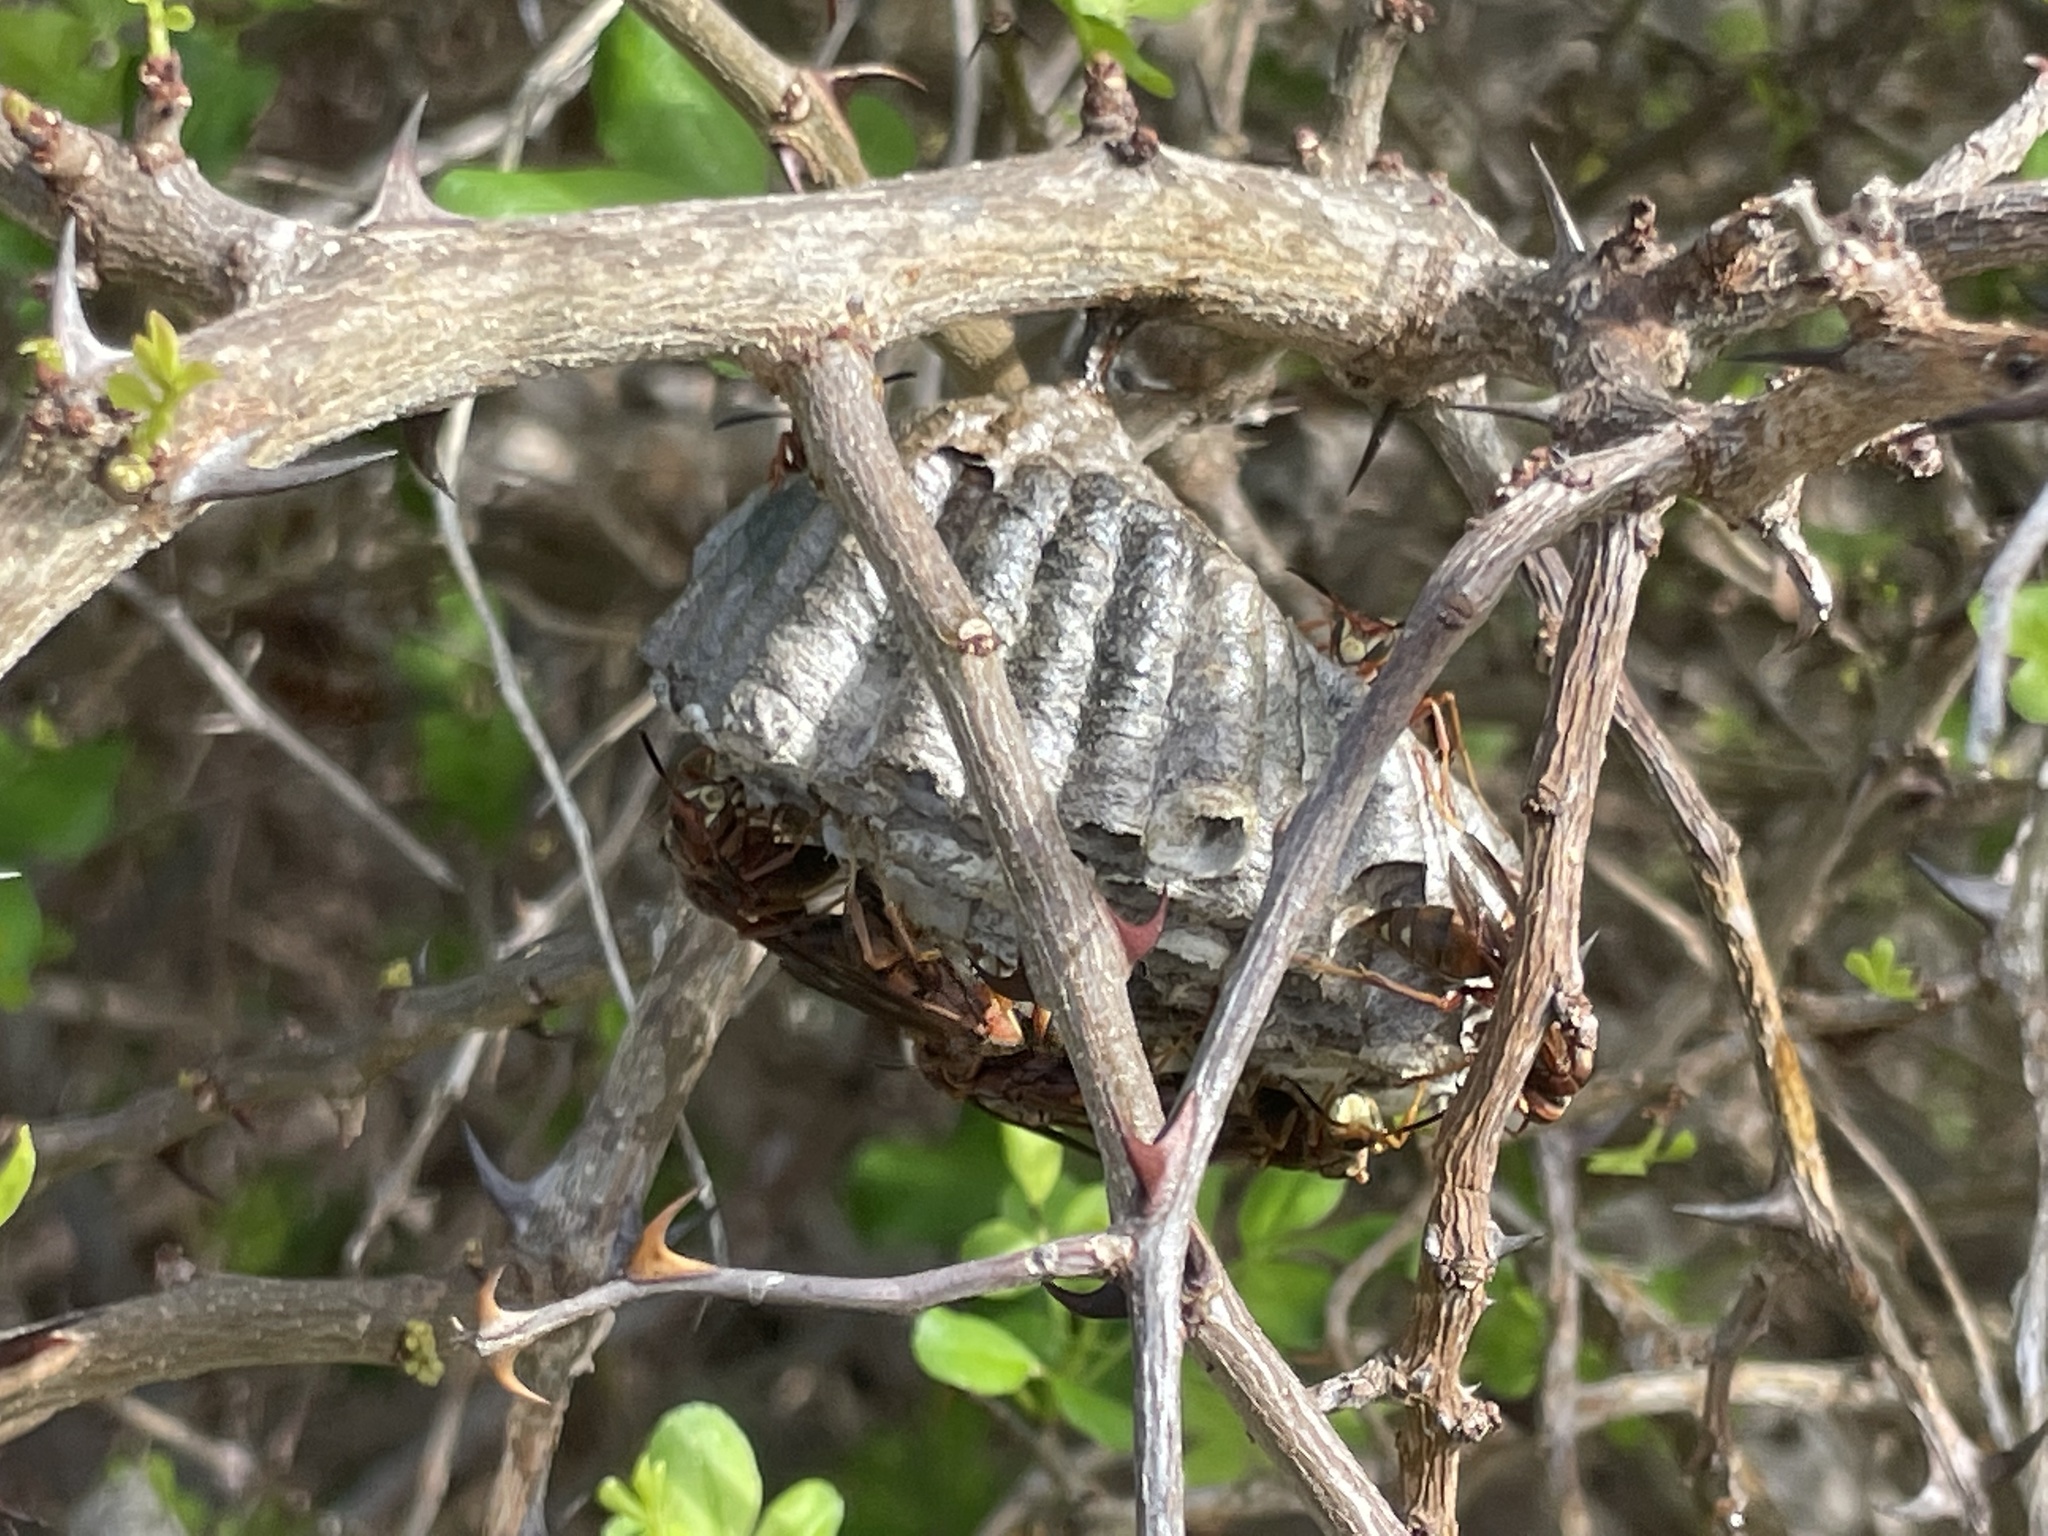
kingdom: Animalia
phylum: Arthropoda
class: Insecta
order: Hymenoptera
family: Eumenidae
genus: Polistes
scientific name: Polistes dorsalis
